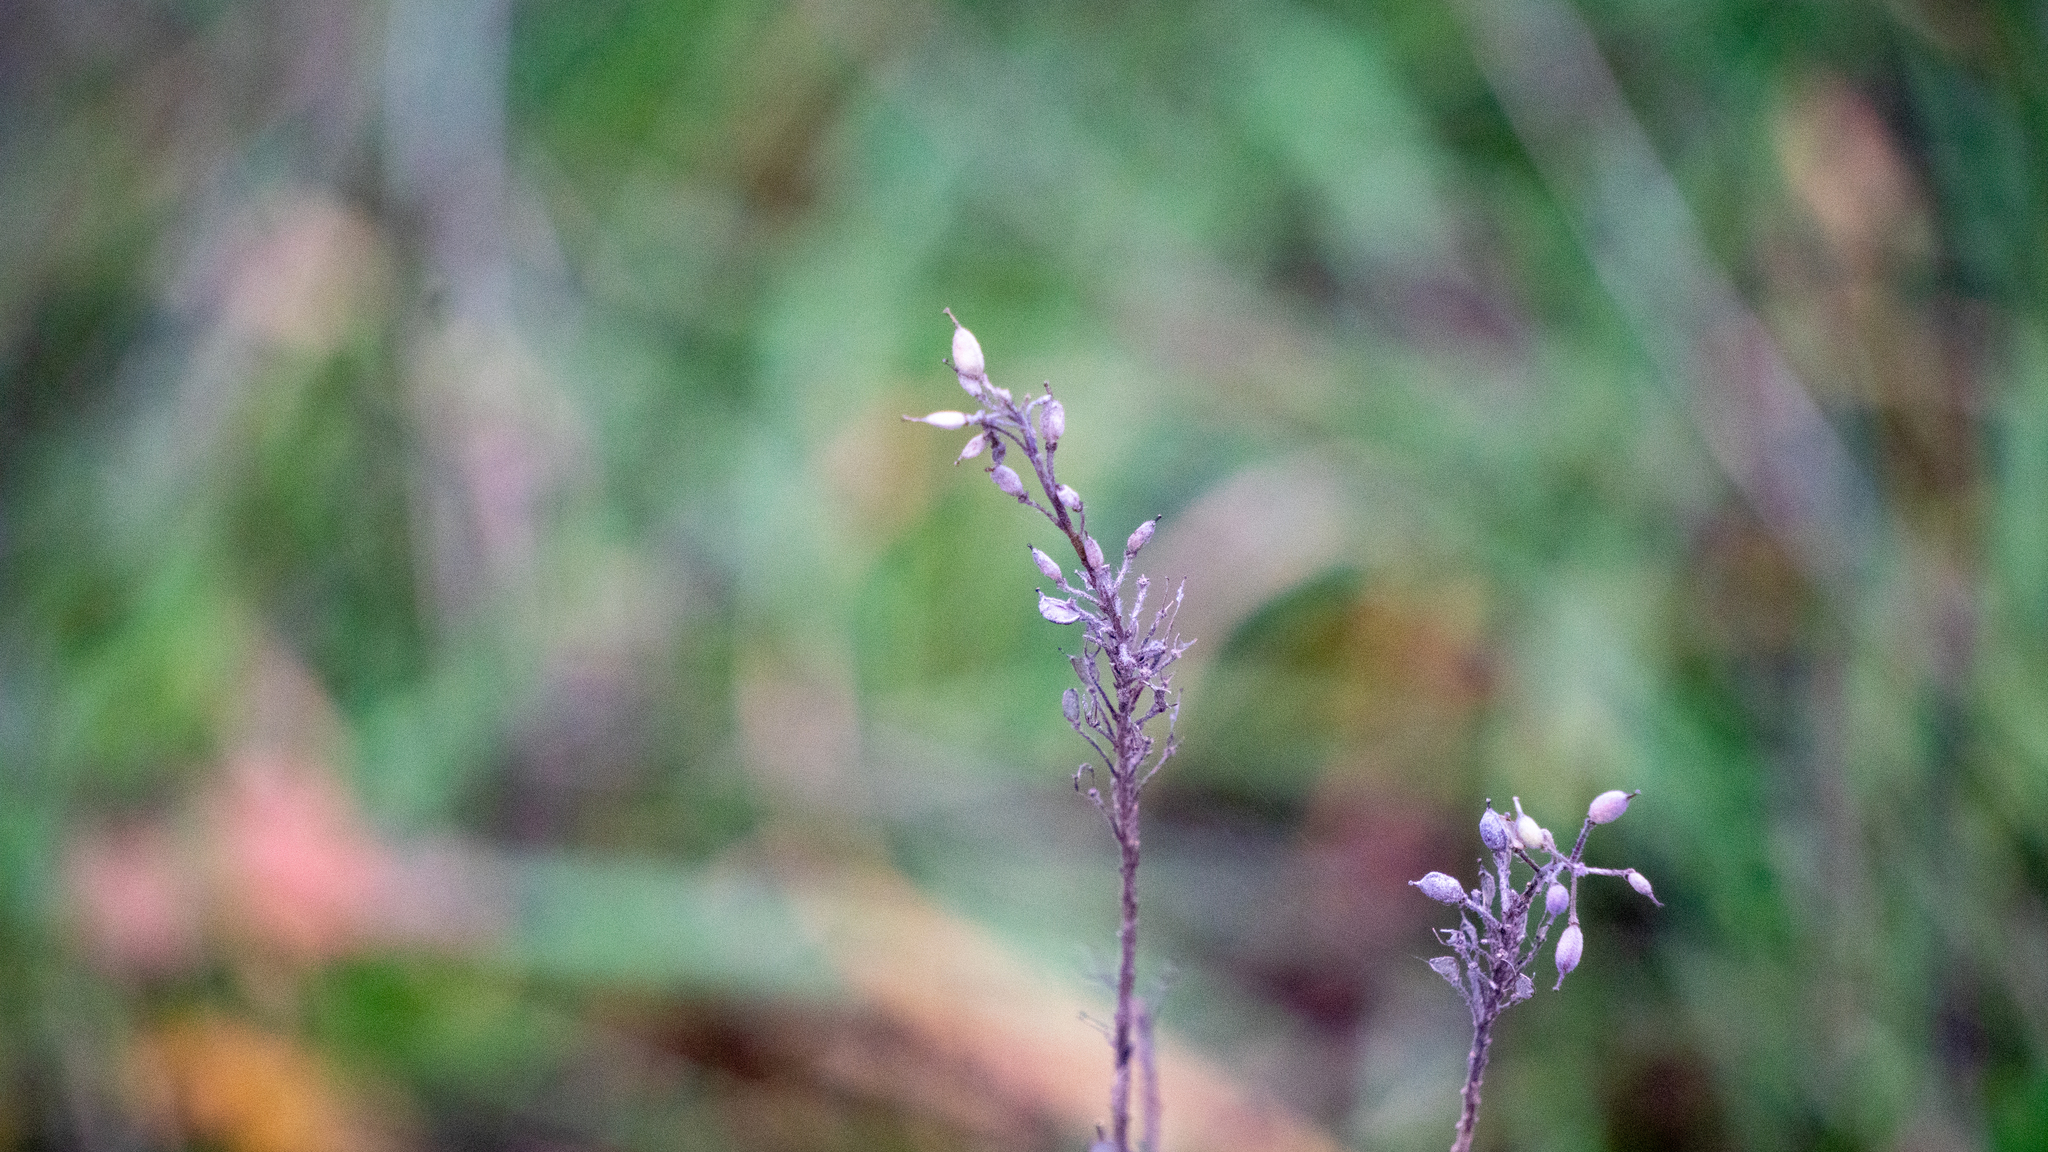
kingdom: Plantae
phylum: Tracheophyta
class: Magnoliopsida
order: Brassicales
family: Brassicaceae
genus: Berteroa
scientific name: Berteroa incana
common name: Hoary alison
